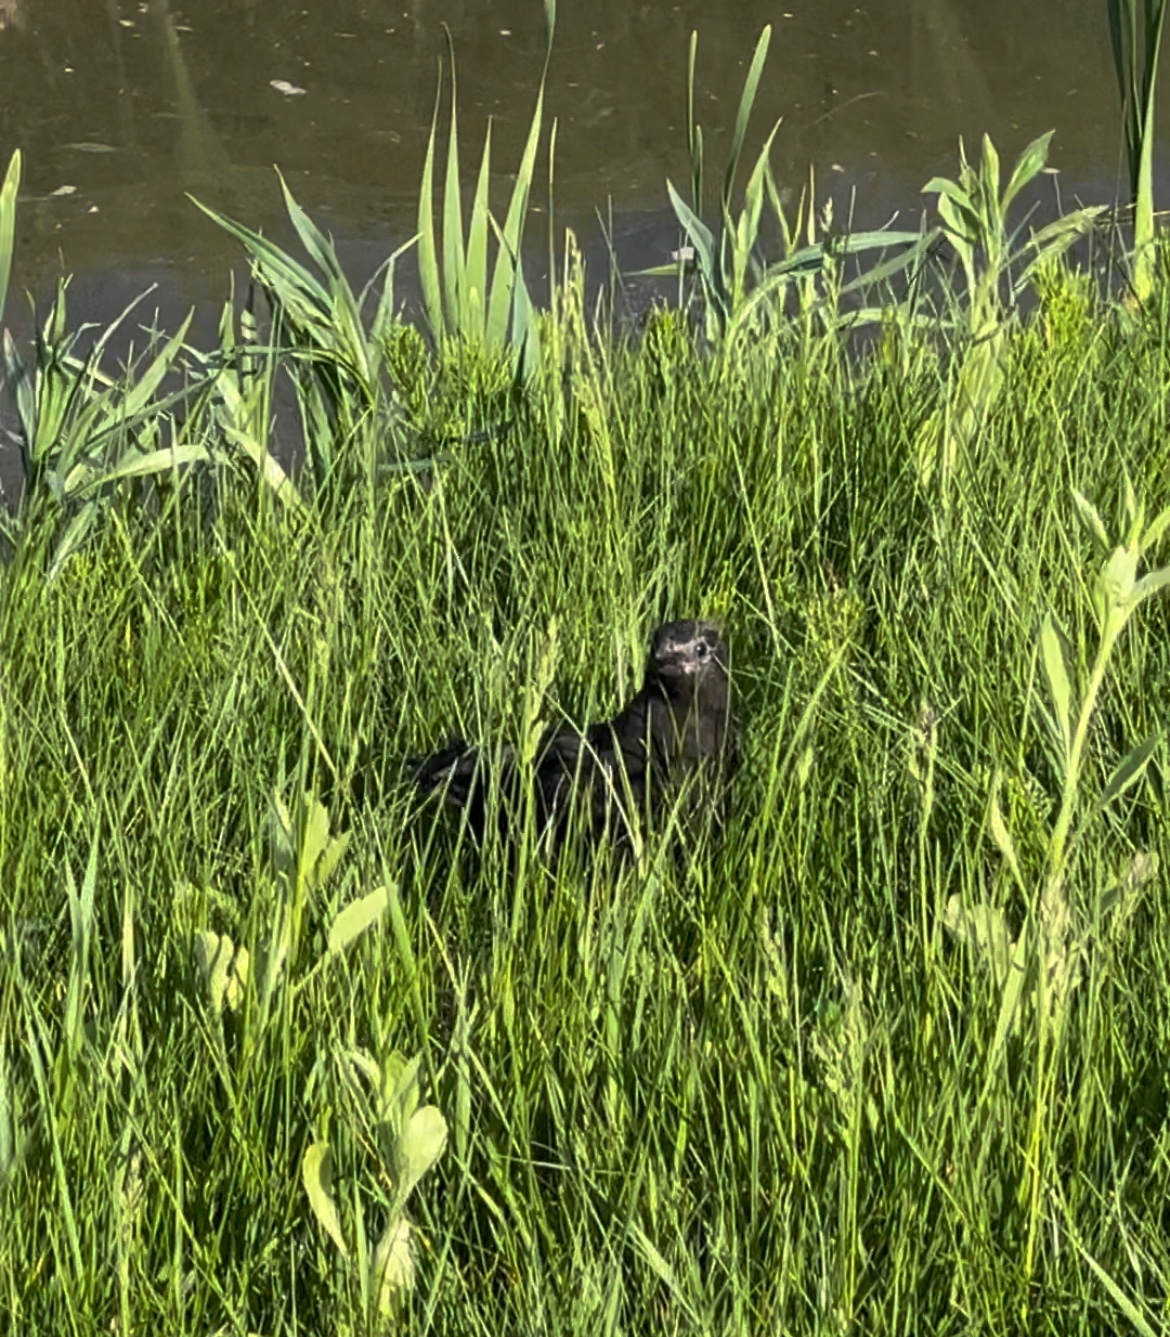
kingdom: Animalia
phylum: Chordata
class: Aves
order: Passeriformes
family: Icteridae
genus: Quiscalus
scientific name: Quiscalus quiscula
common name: Common grackle
